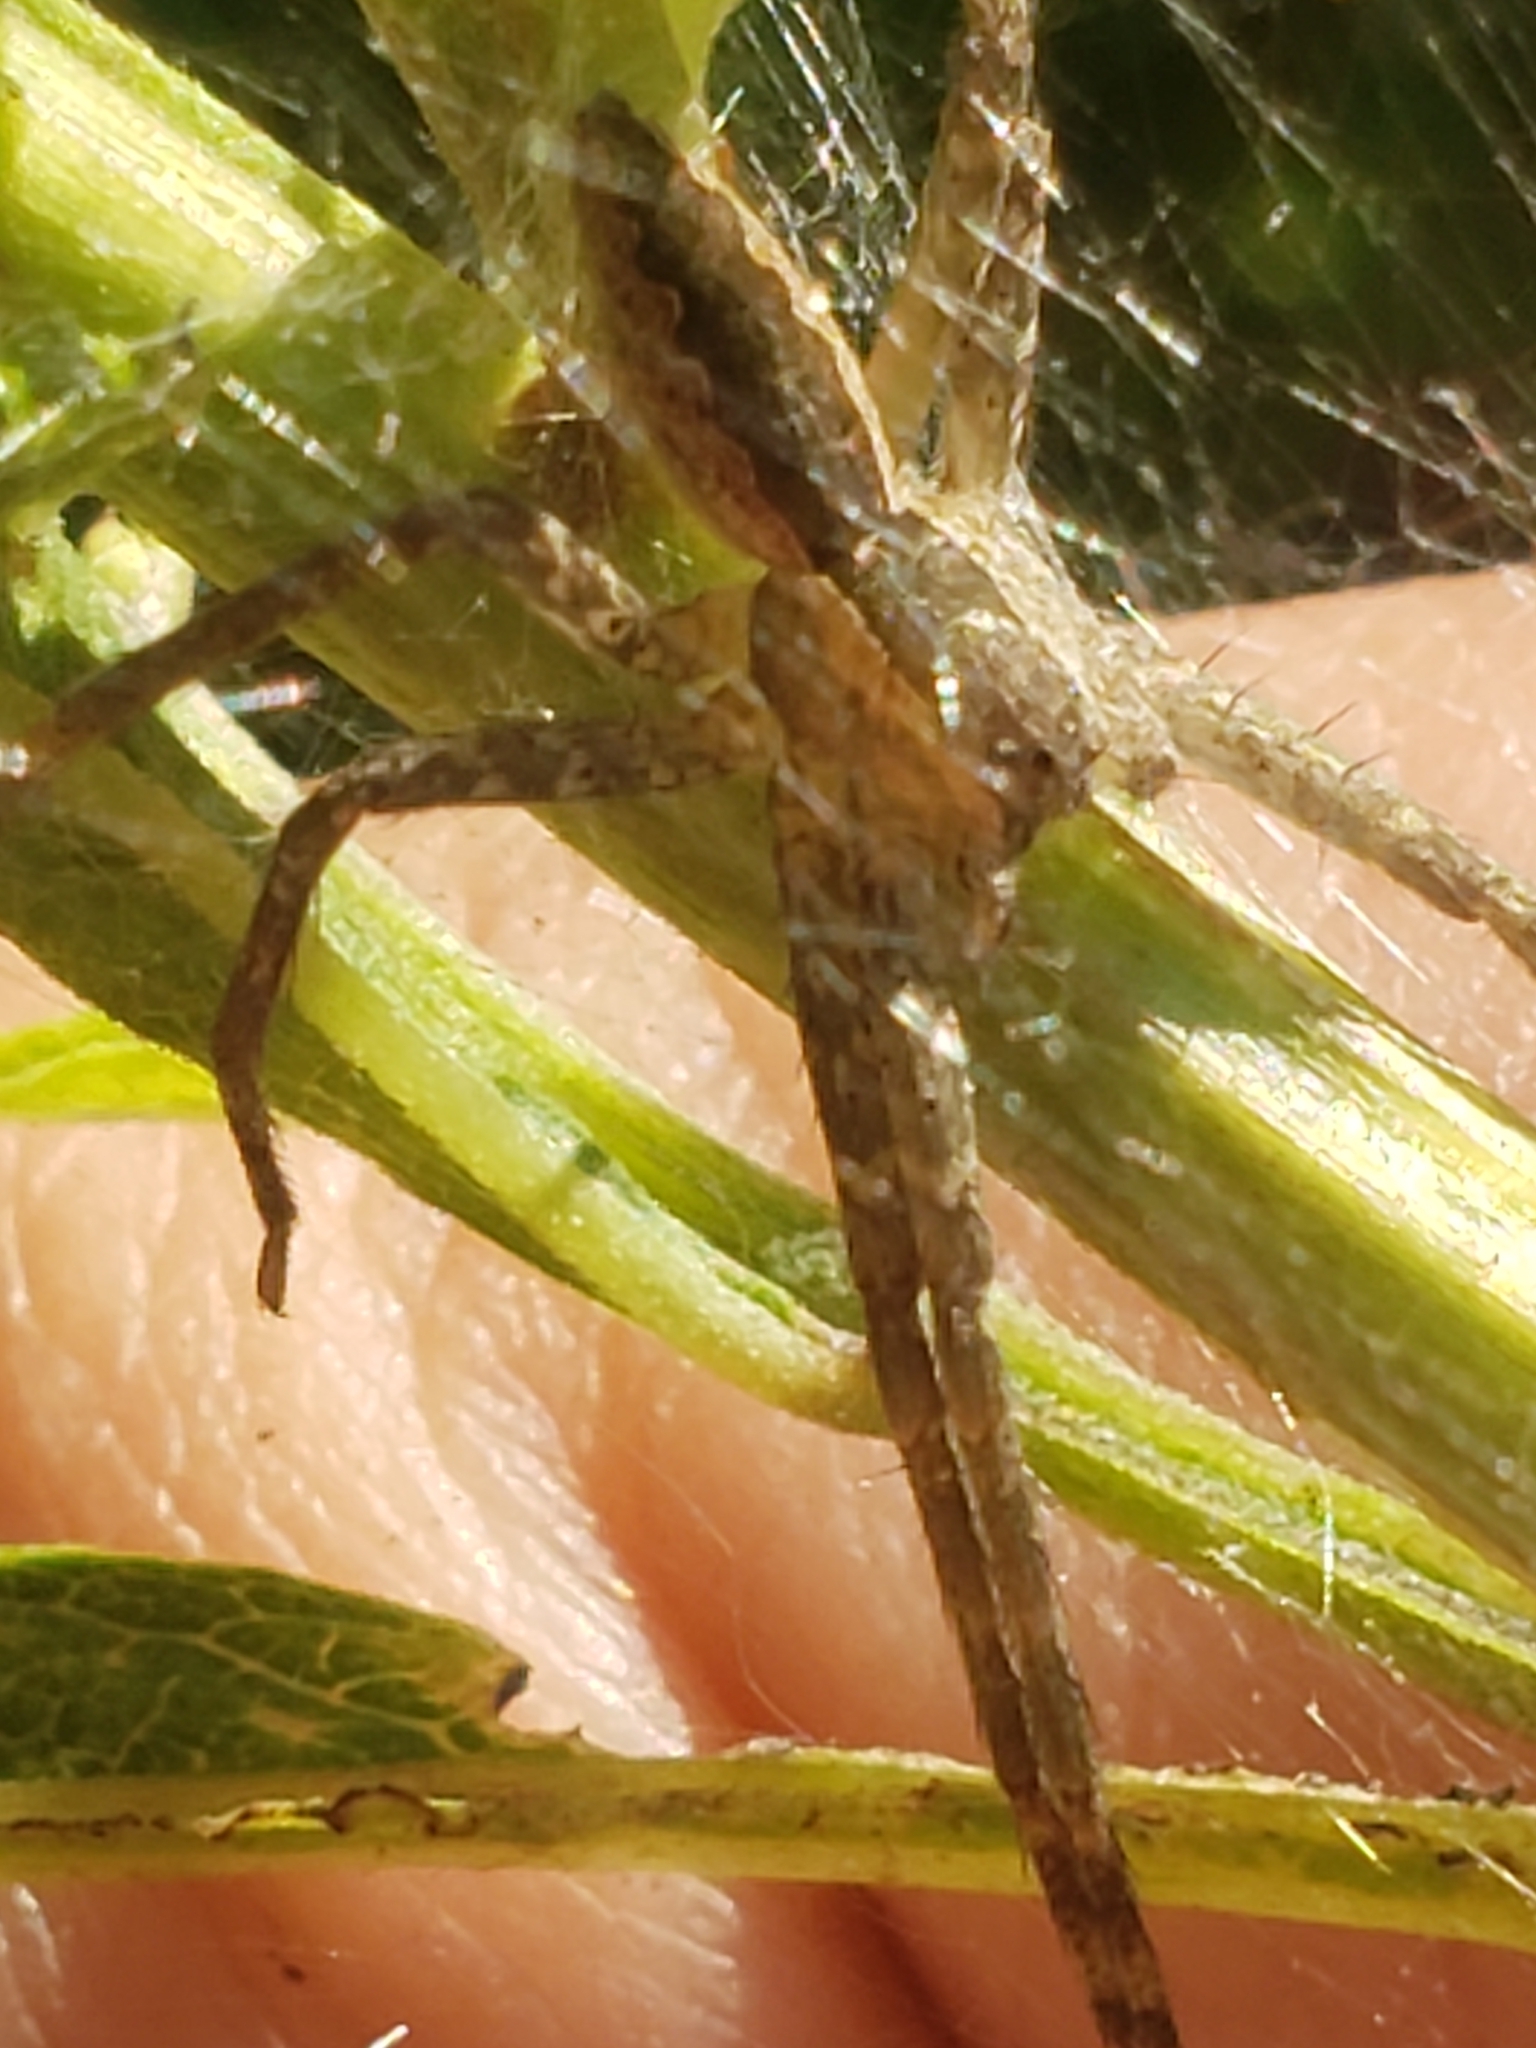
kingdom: Animalia
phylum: Arthropoda
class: Arachnida
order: Araneae
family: Pisauridae
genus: Pisaurina
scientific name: Pisaurina mira
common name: American nursery web spider
